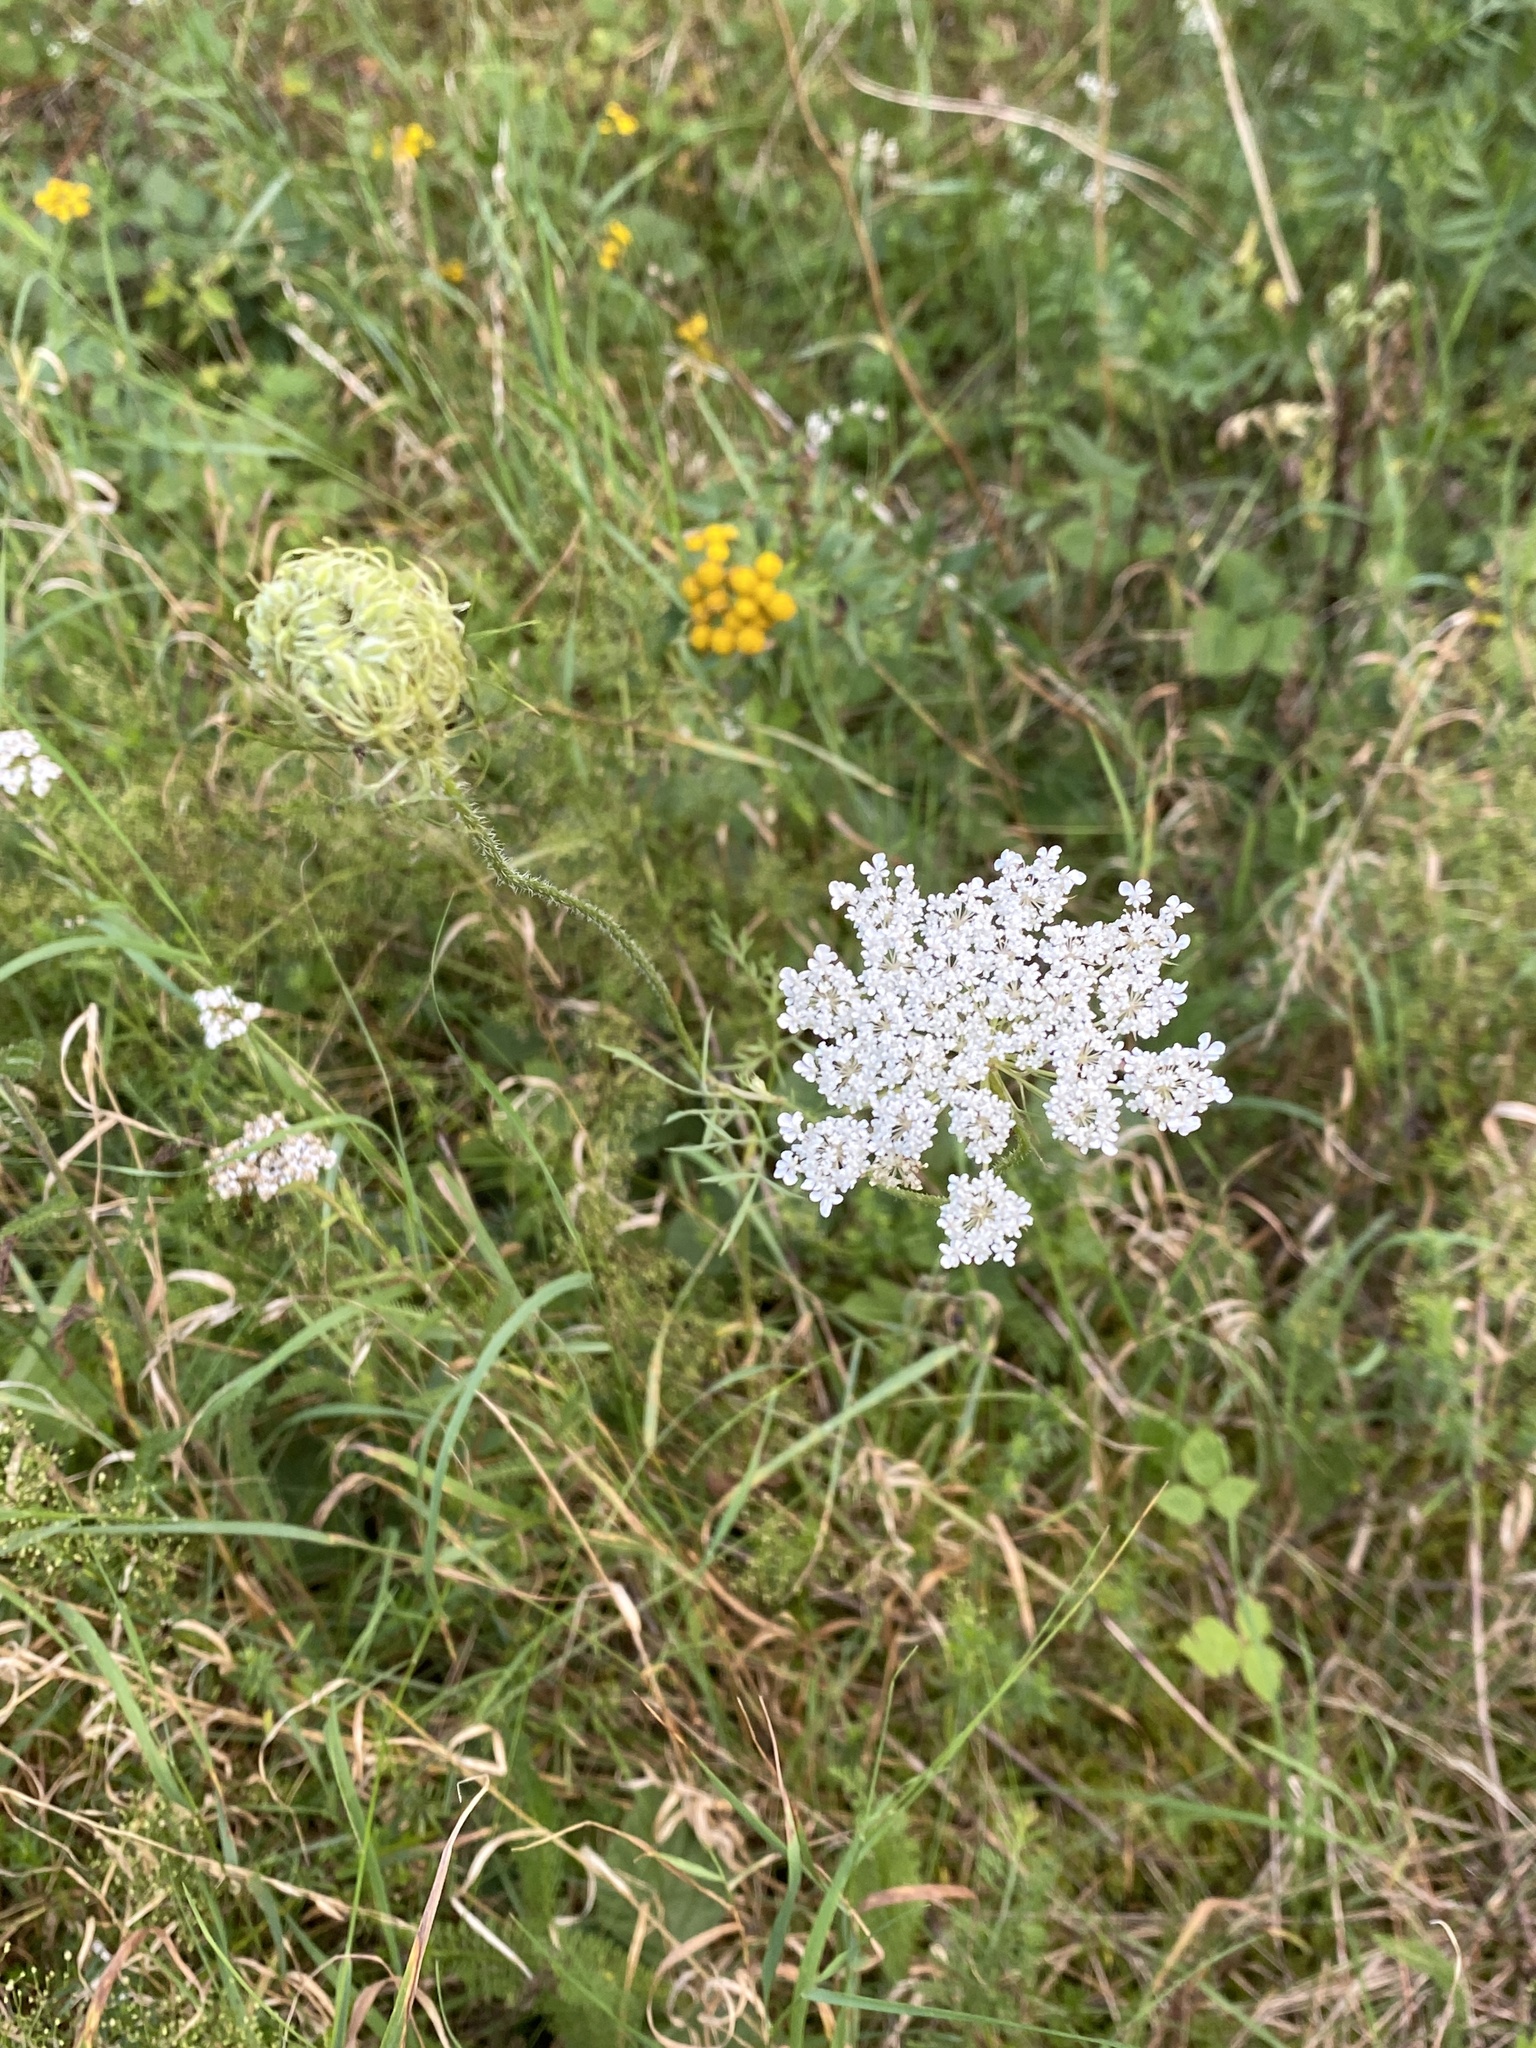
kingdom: Plantae
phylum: Tracheophyta
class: Magnoliopsida
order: Apiales
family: Apiaceae
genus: Daucus
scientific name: Daucus carota
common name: Wild carrot
